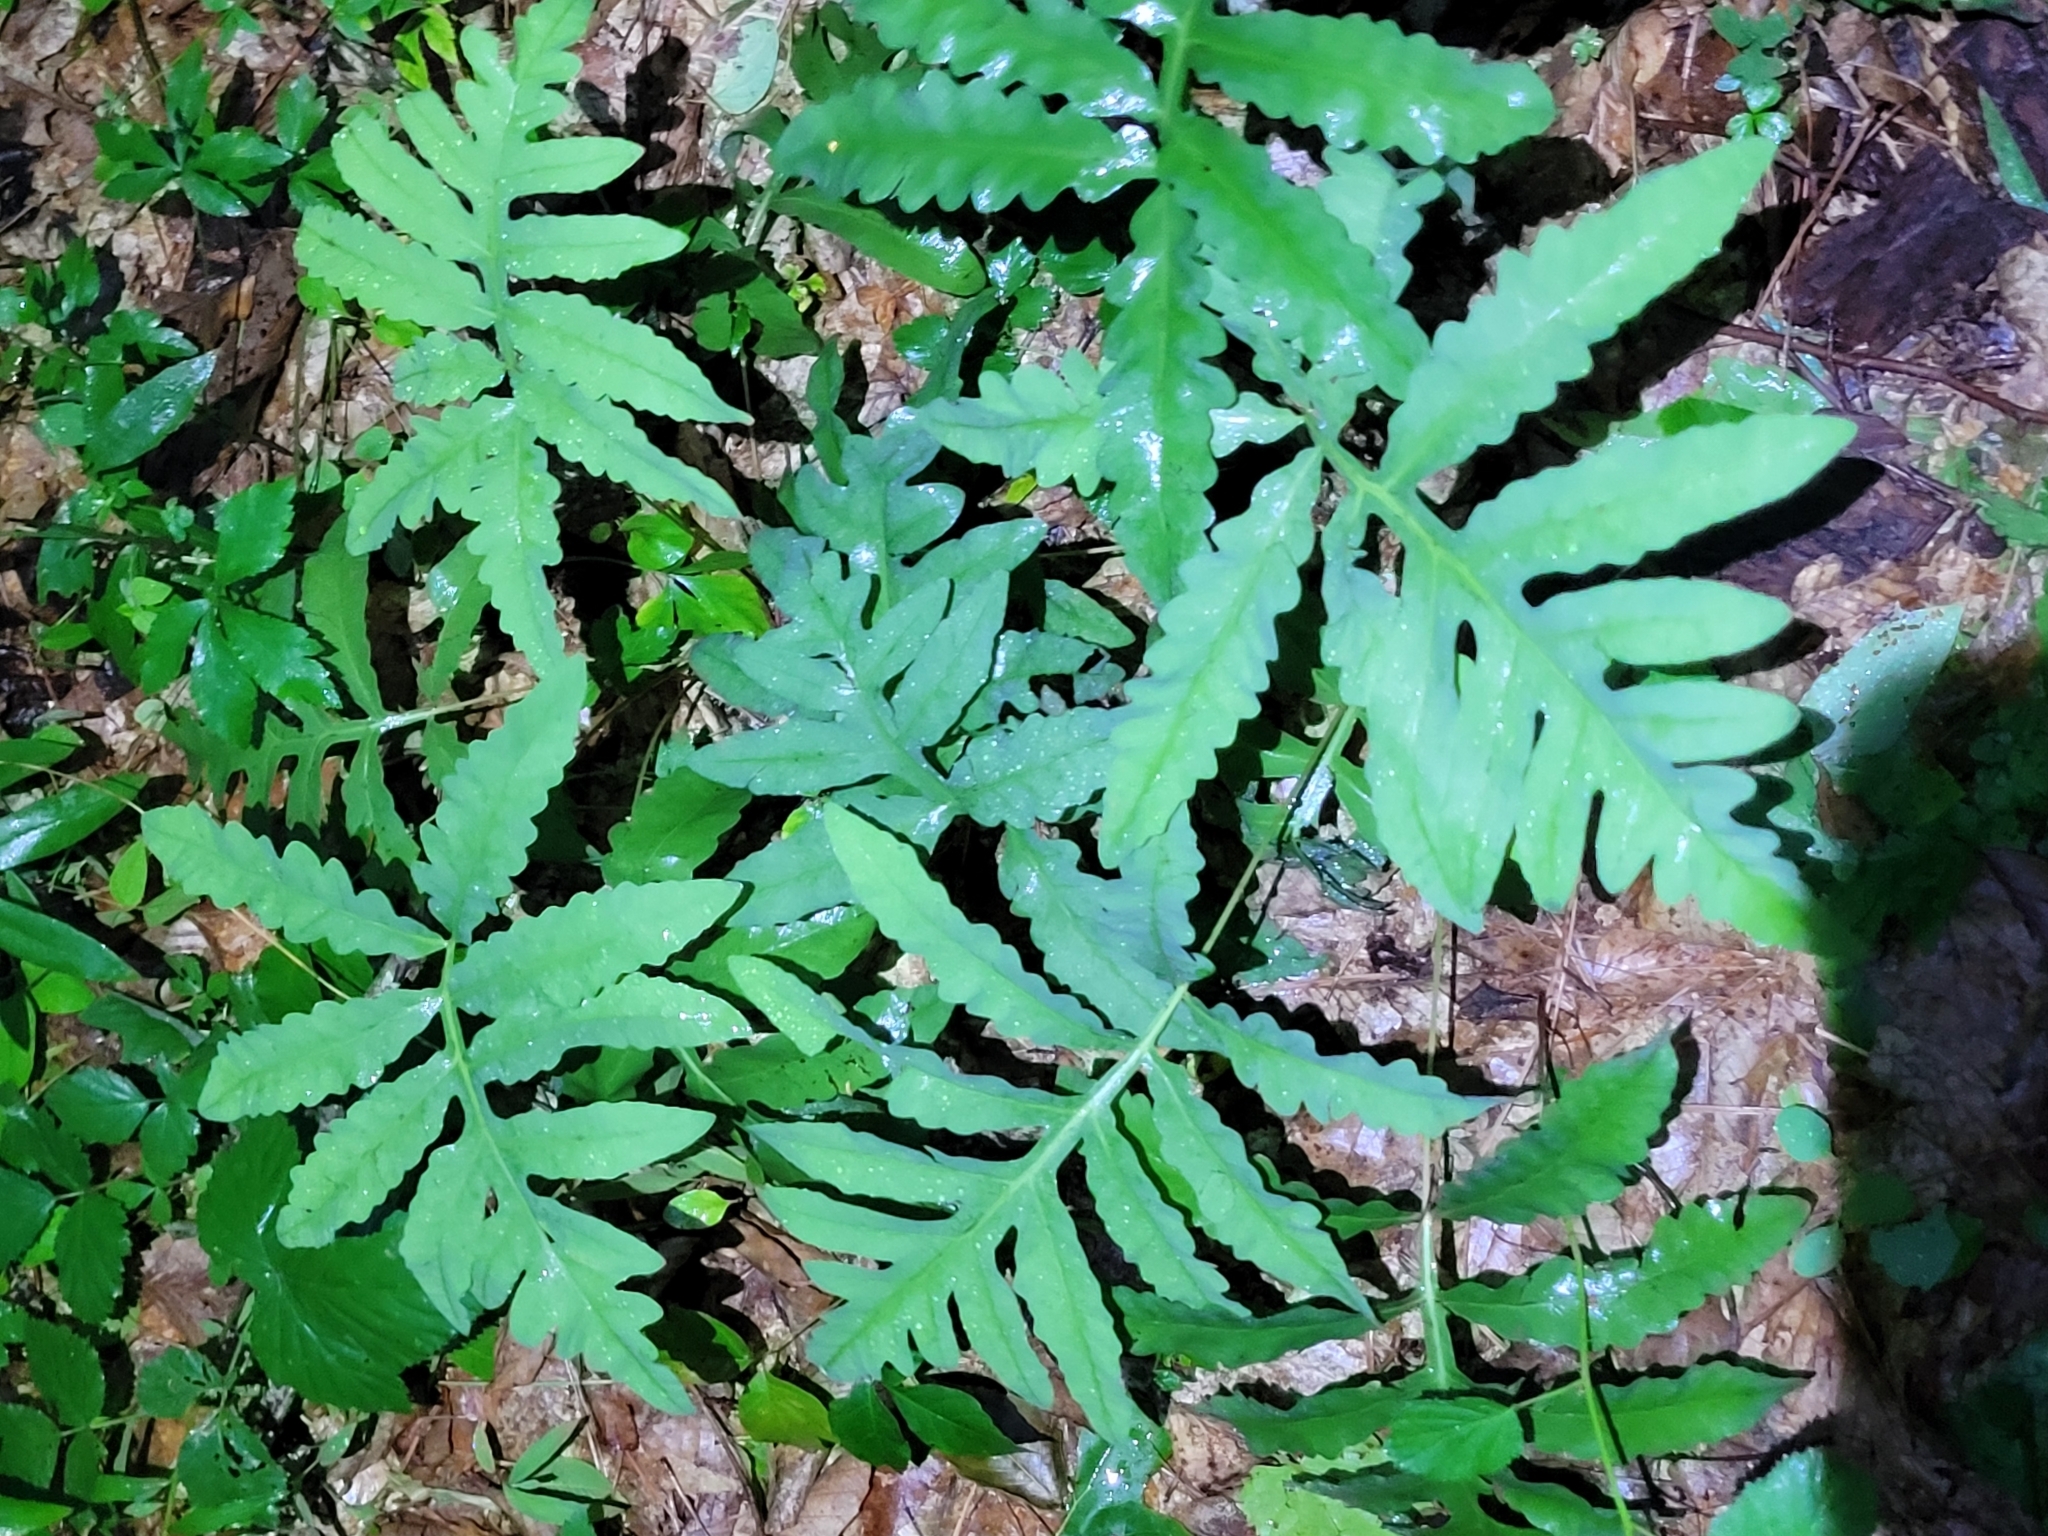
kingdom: Plantae
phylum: Tracheophyta
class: Polypodiopsida
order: Polypodiales
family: Onocleaceae
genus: Onoclea
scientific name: Onoclea sensibilis
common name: Sensitive fern
